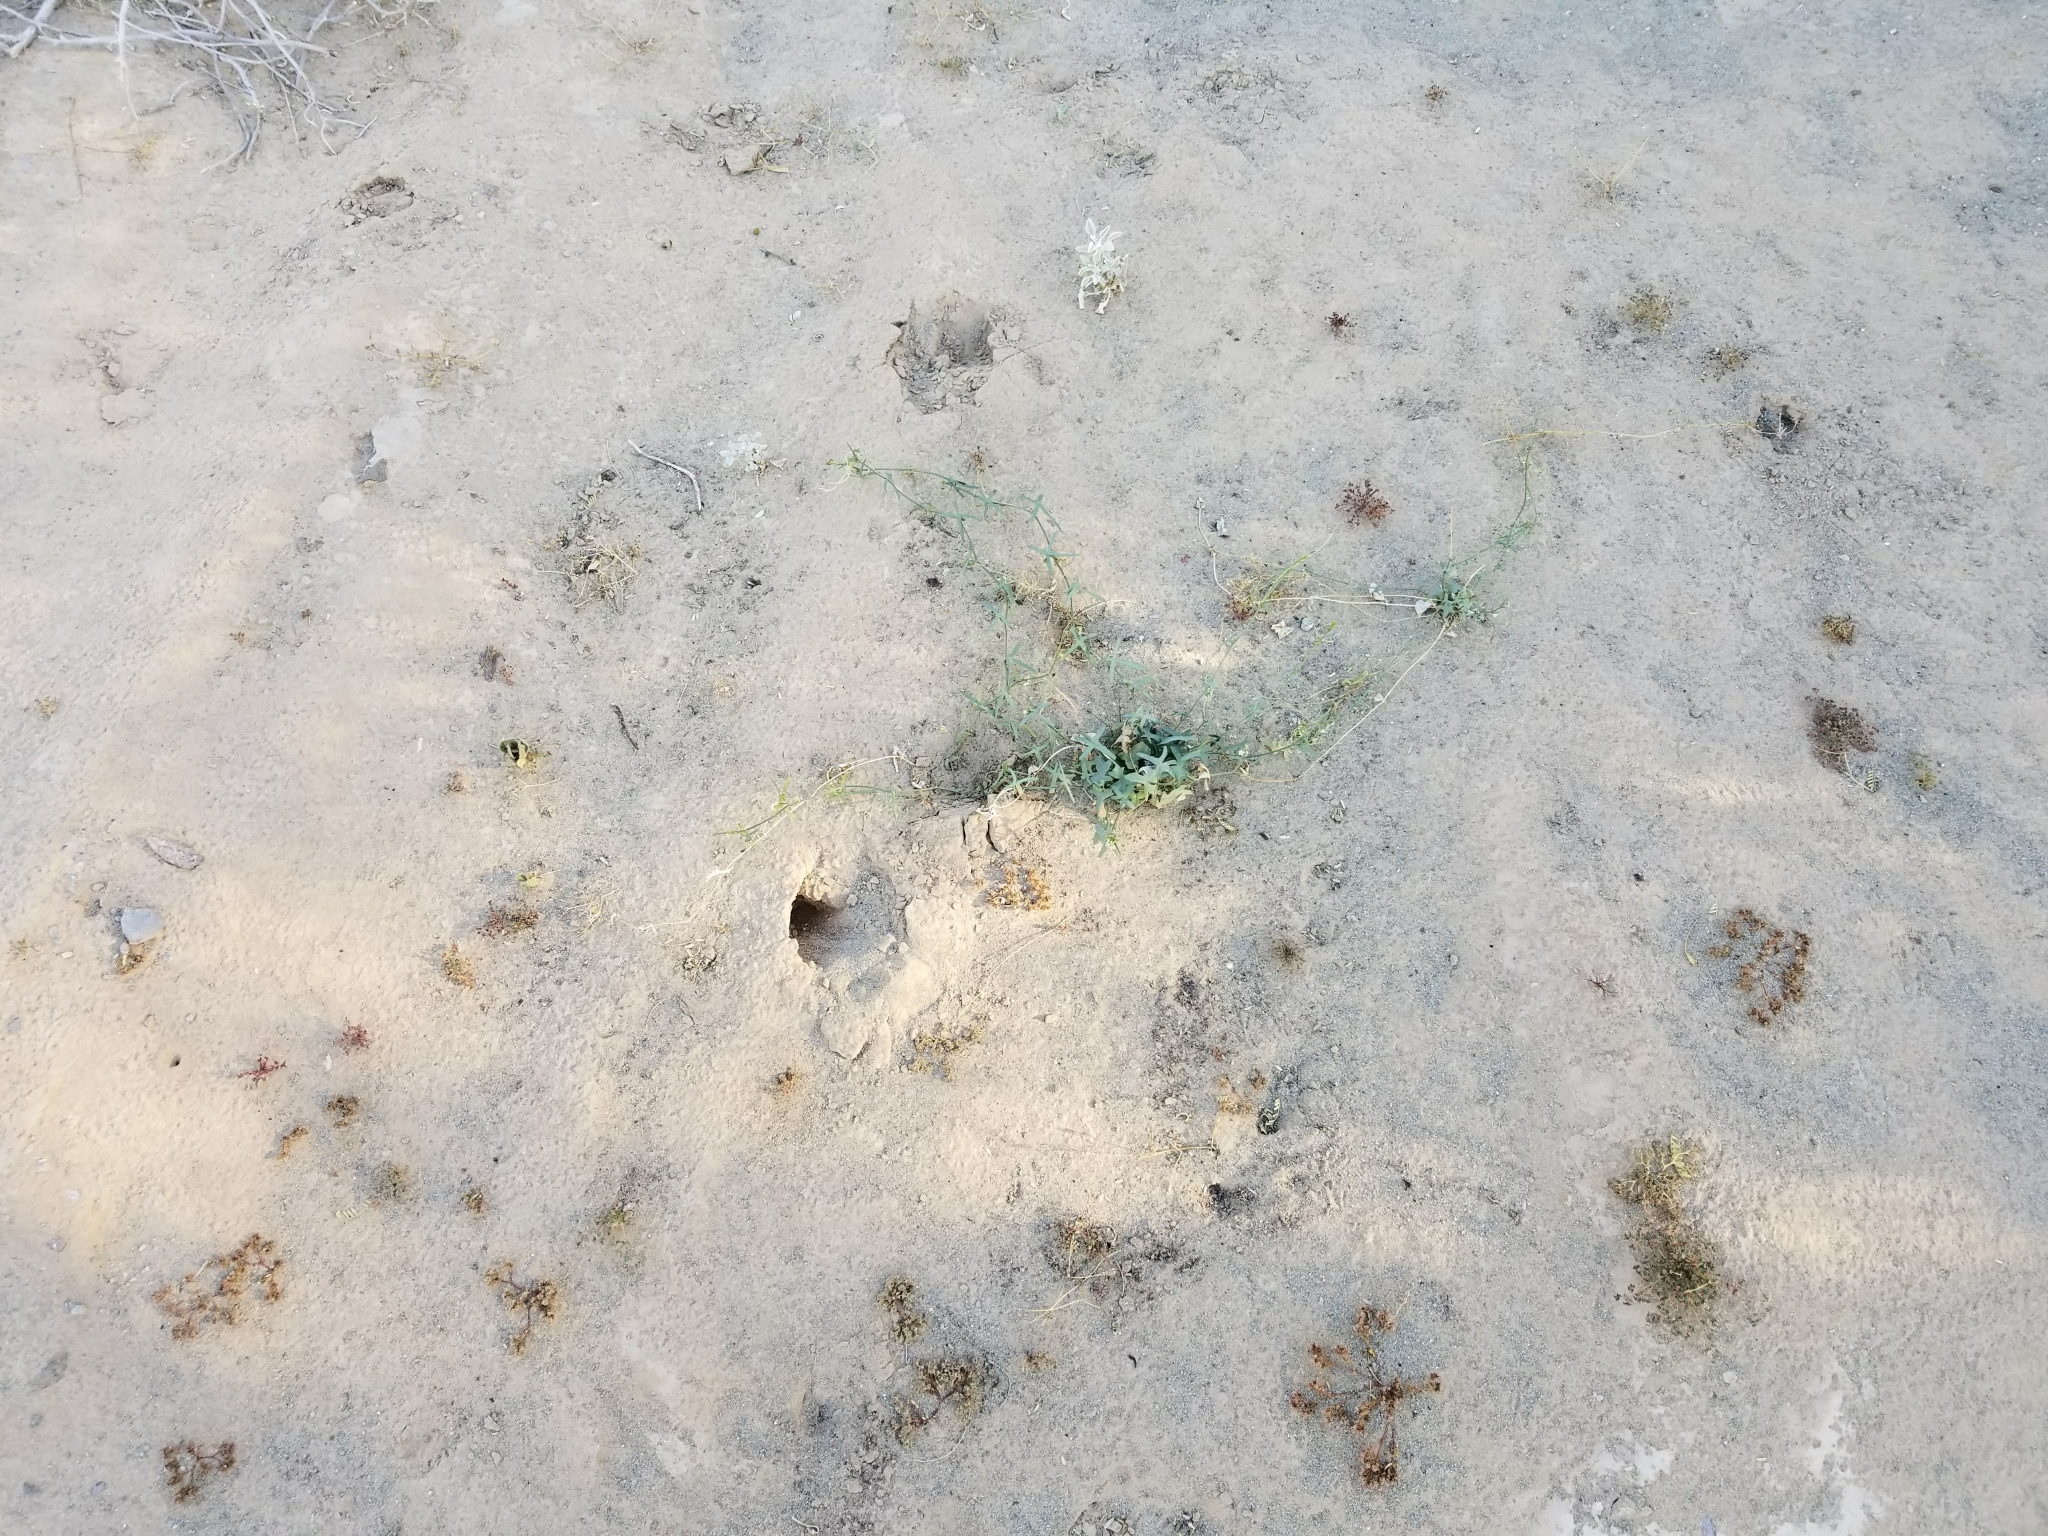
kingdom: Plantae
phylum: Tracheophyta
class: Magnoliopsida
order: Cucurbitales
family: Cucurbitaceae
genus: Echinopepon
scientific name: Echinopepon bigelovii
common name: Desert starvine
